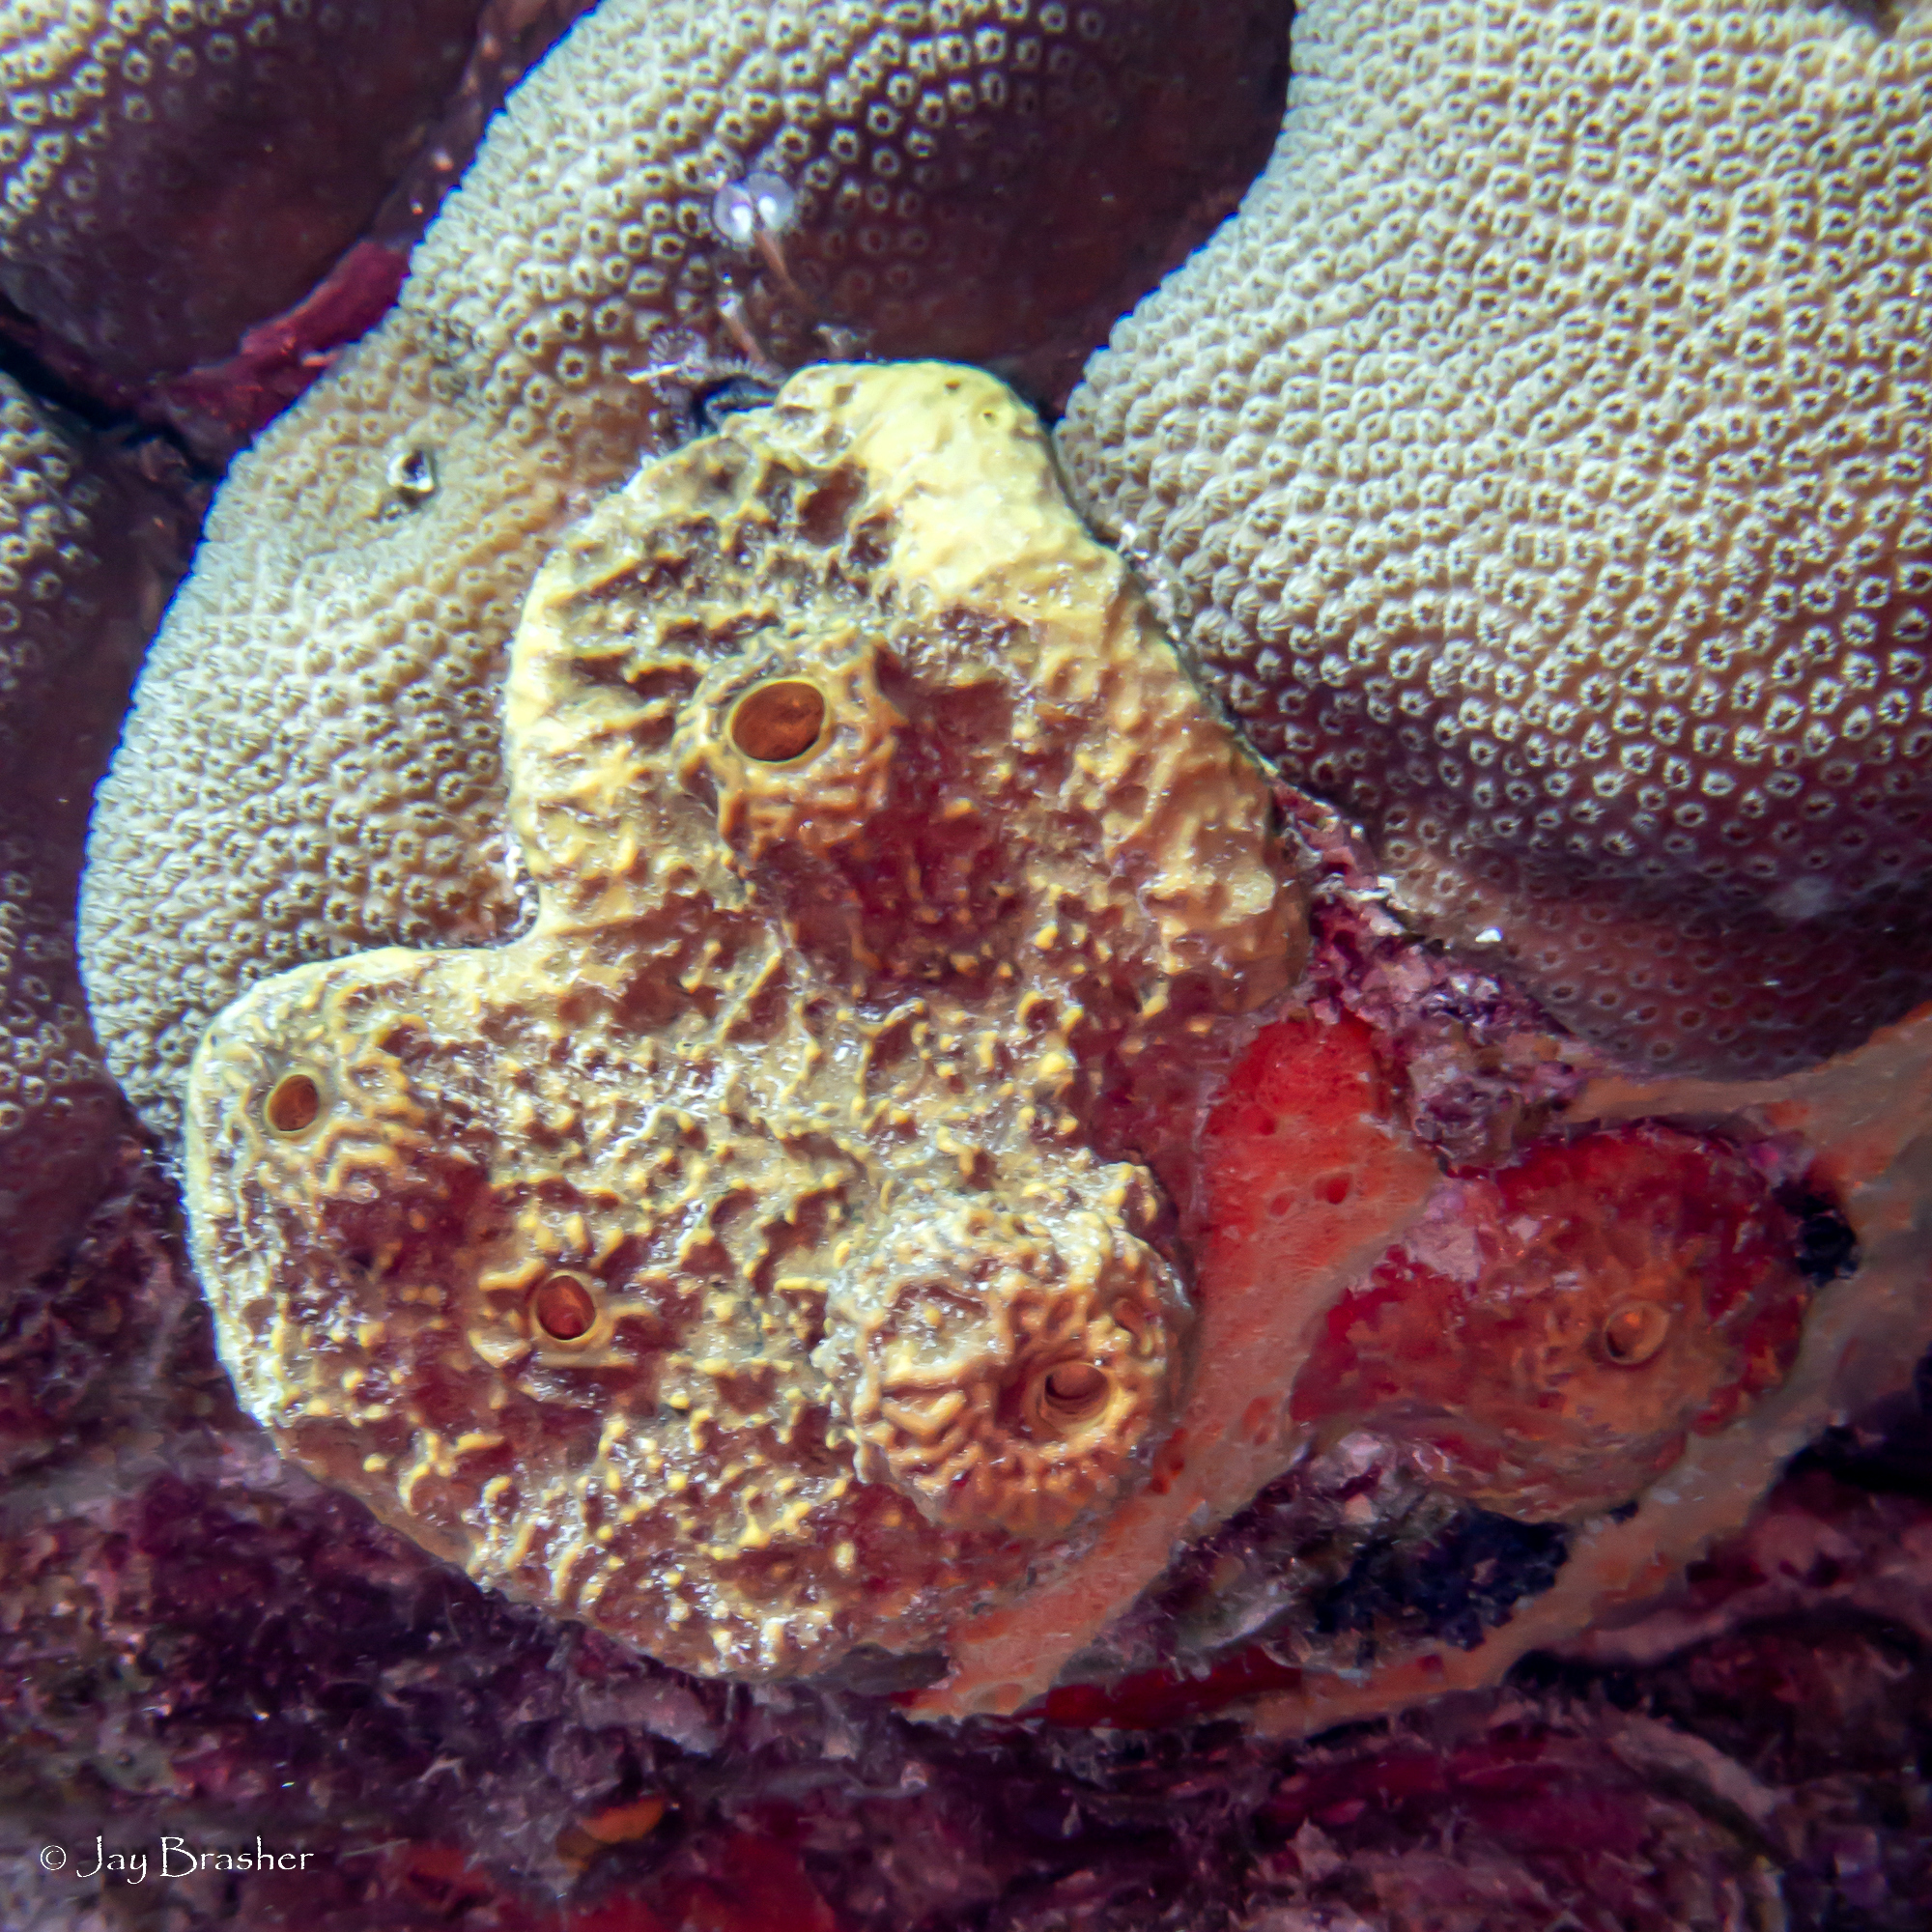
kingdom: Animalia
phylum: Porifera
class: Demospongiae
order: Verongiida
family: Aplysinidae
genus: Verongula
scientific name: Verongula rigida
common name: Pitted sponge
